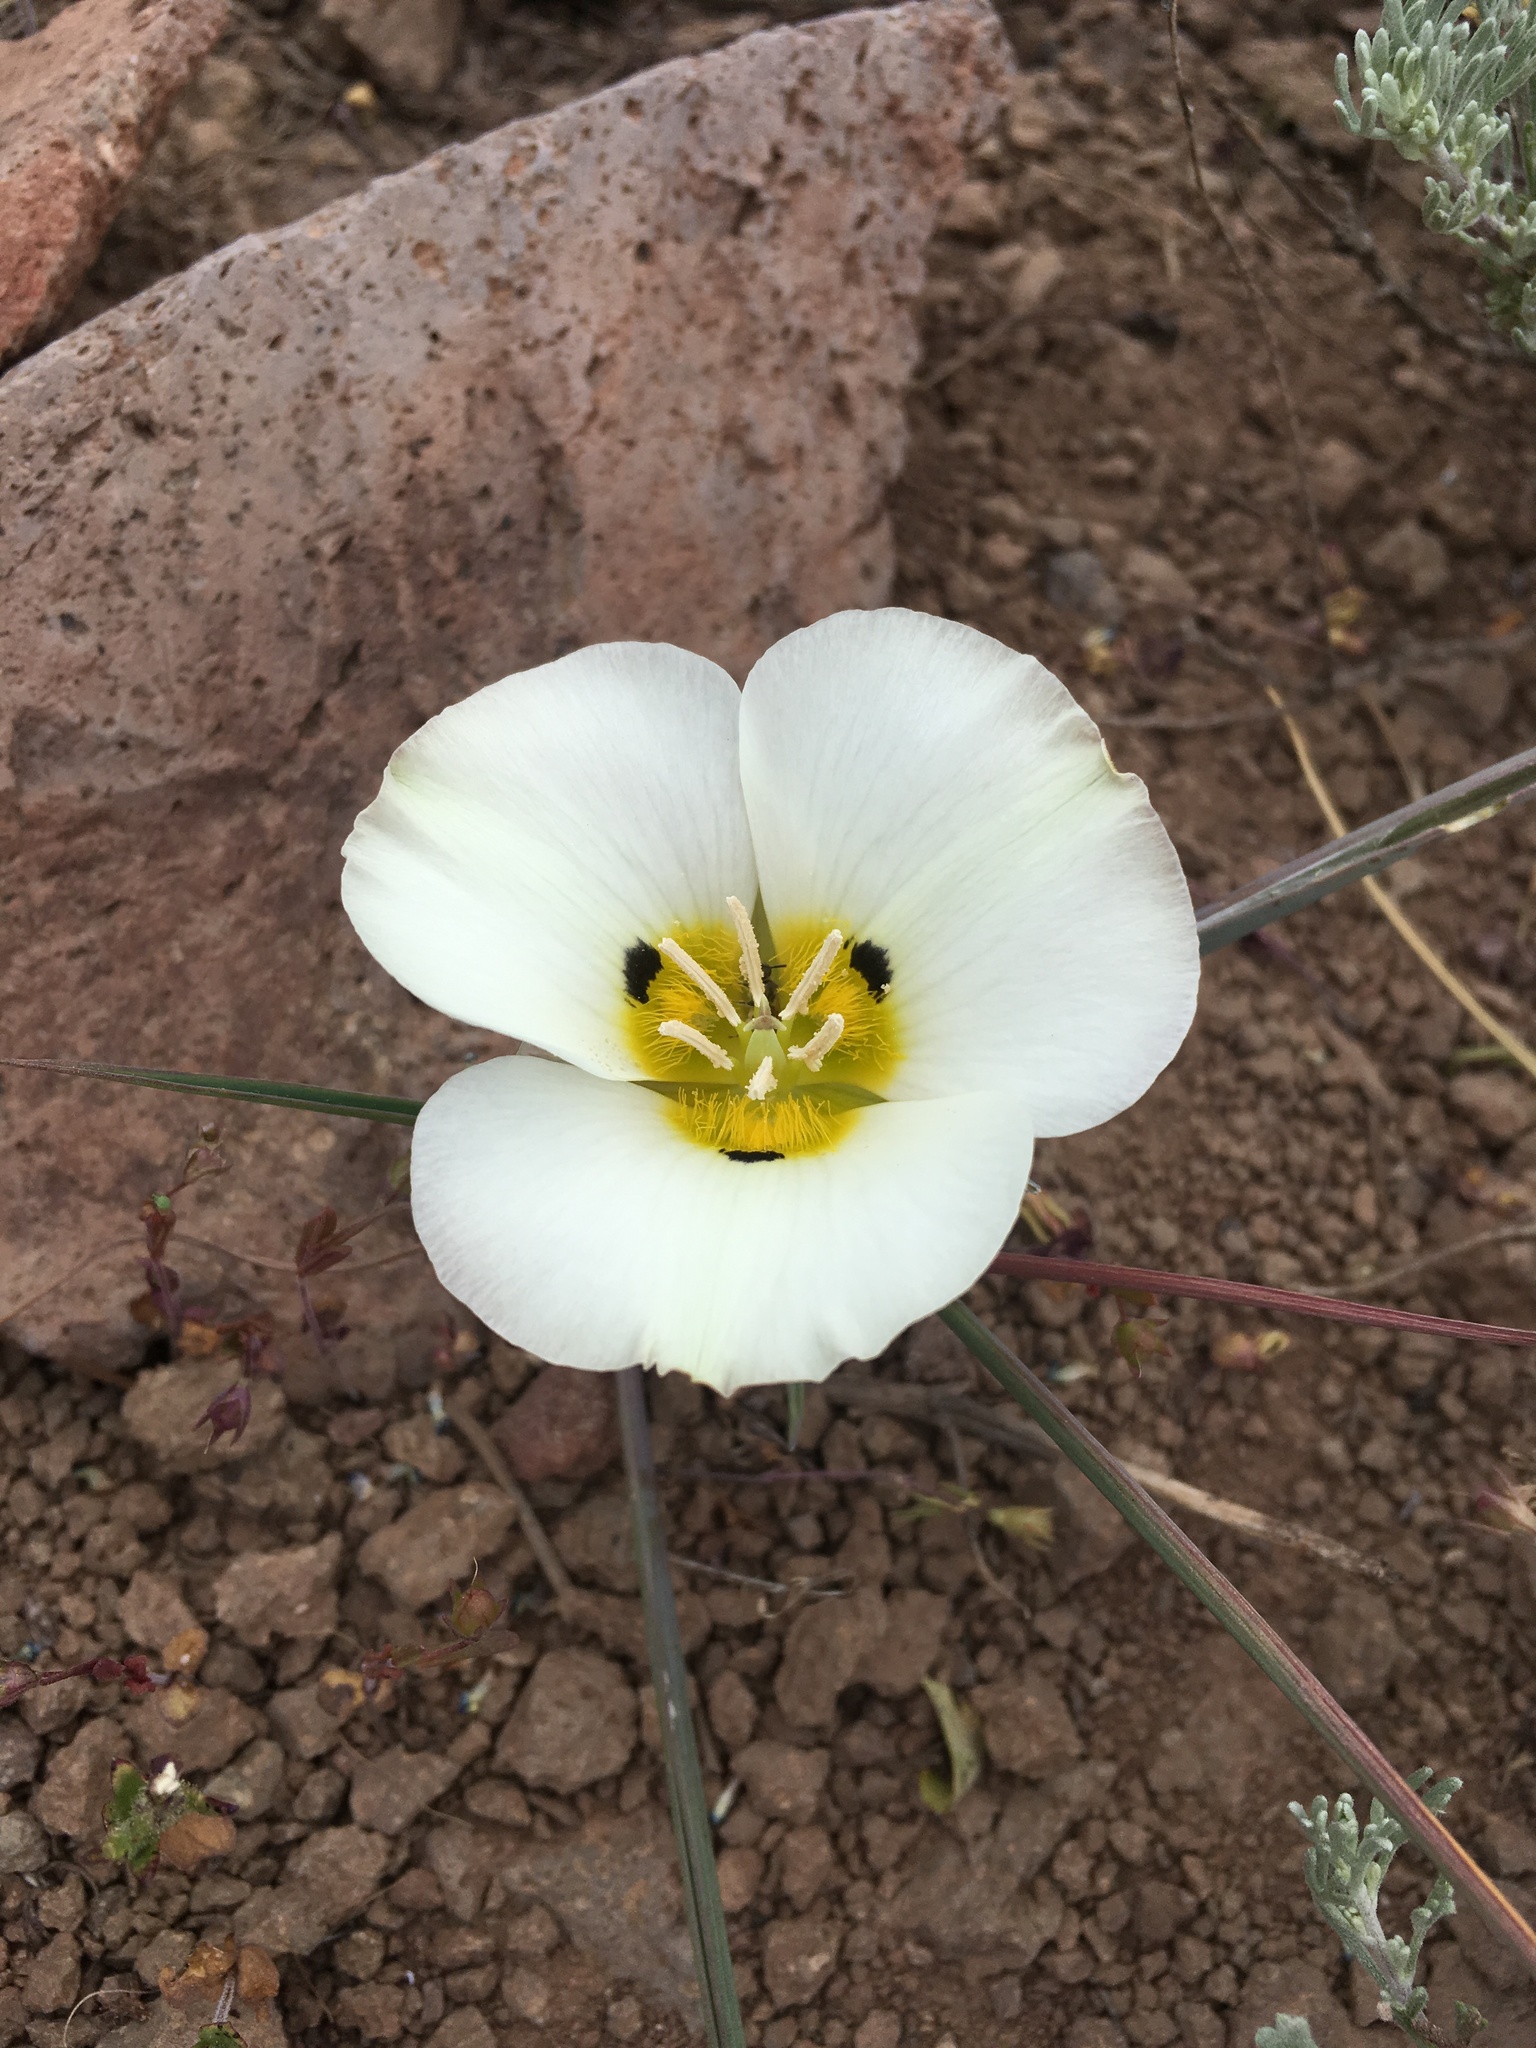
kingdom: Plantae
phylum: Tracheophyta
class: Liliopsida
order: Liliales
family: Liliaceae
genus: Calochortus
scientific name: Calochortus leichtlinii
